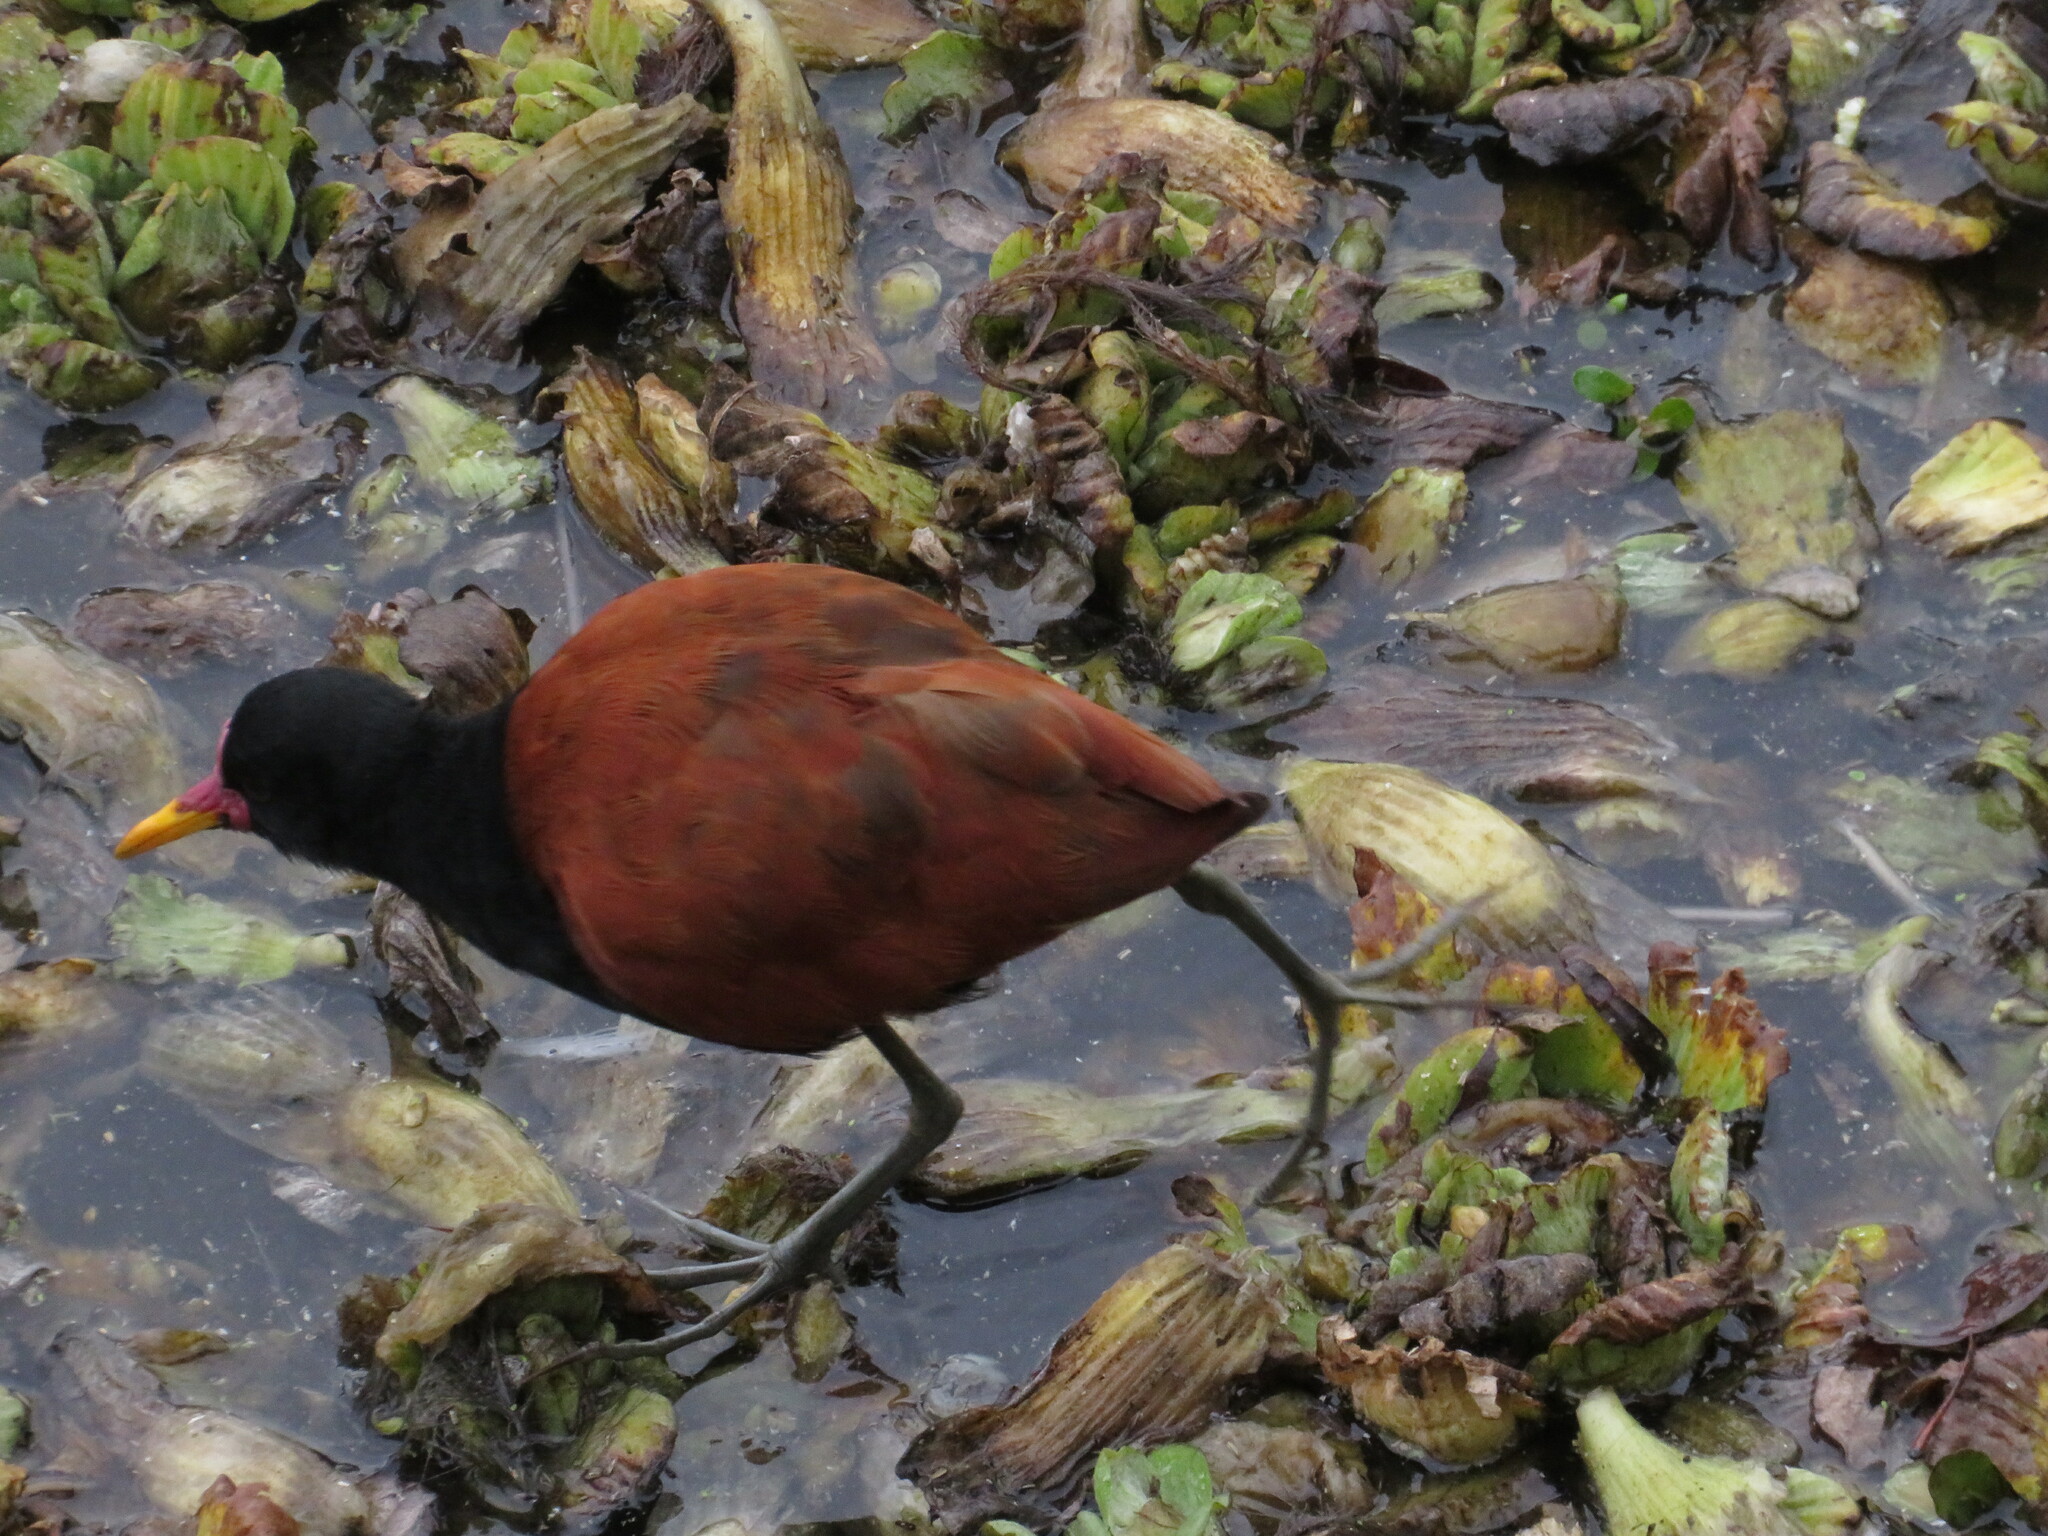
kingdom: Animalia
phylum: Chordata
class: Aves
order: Charadriiformes
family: Jacanidae
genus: Jacana
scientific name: Jacana jacana
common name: Wattled jacana
